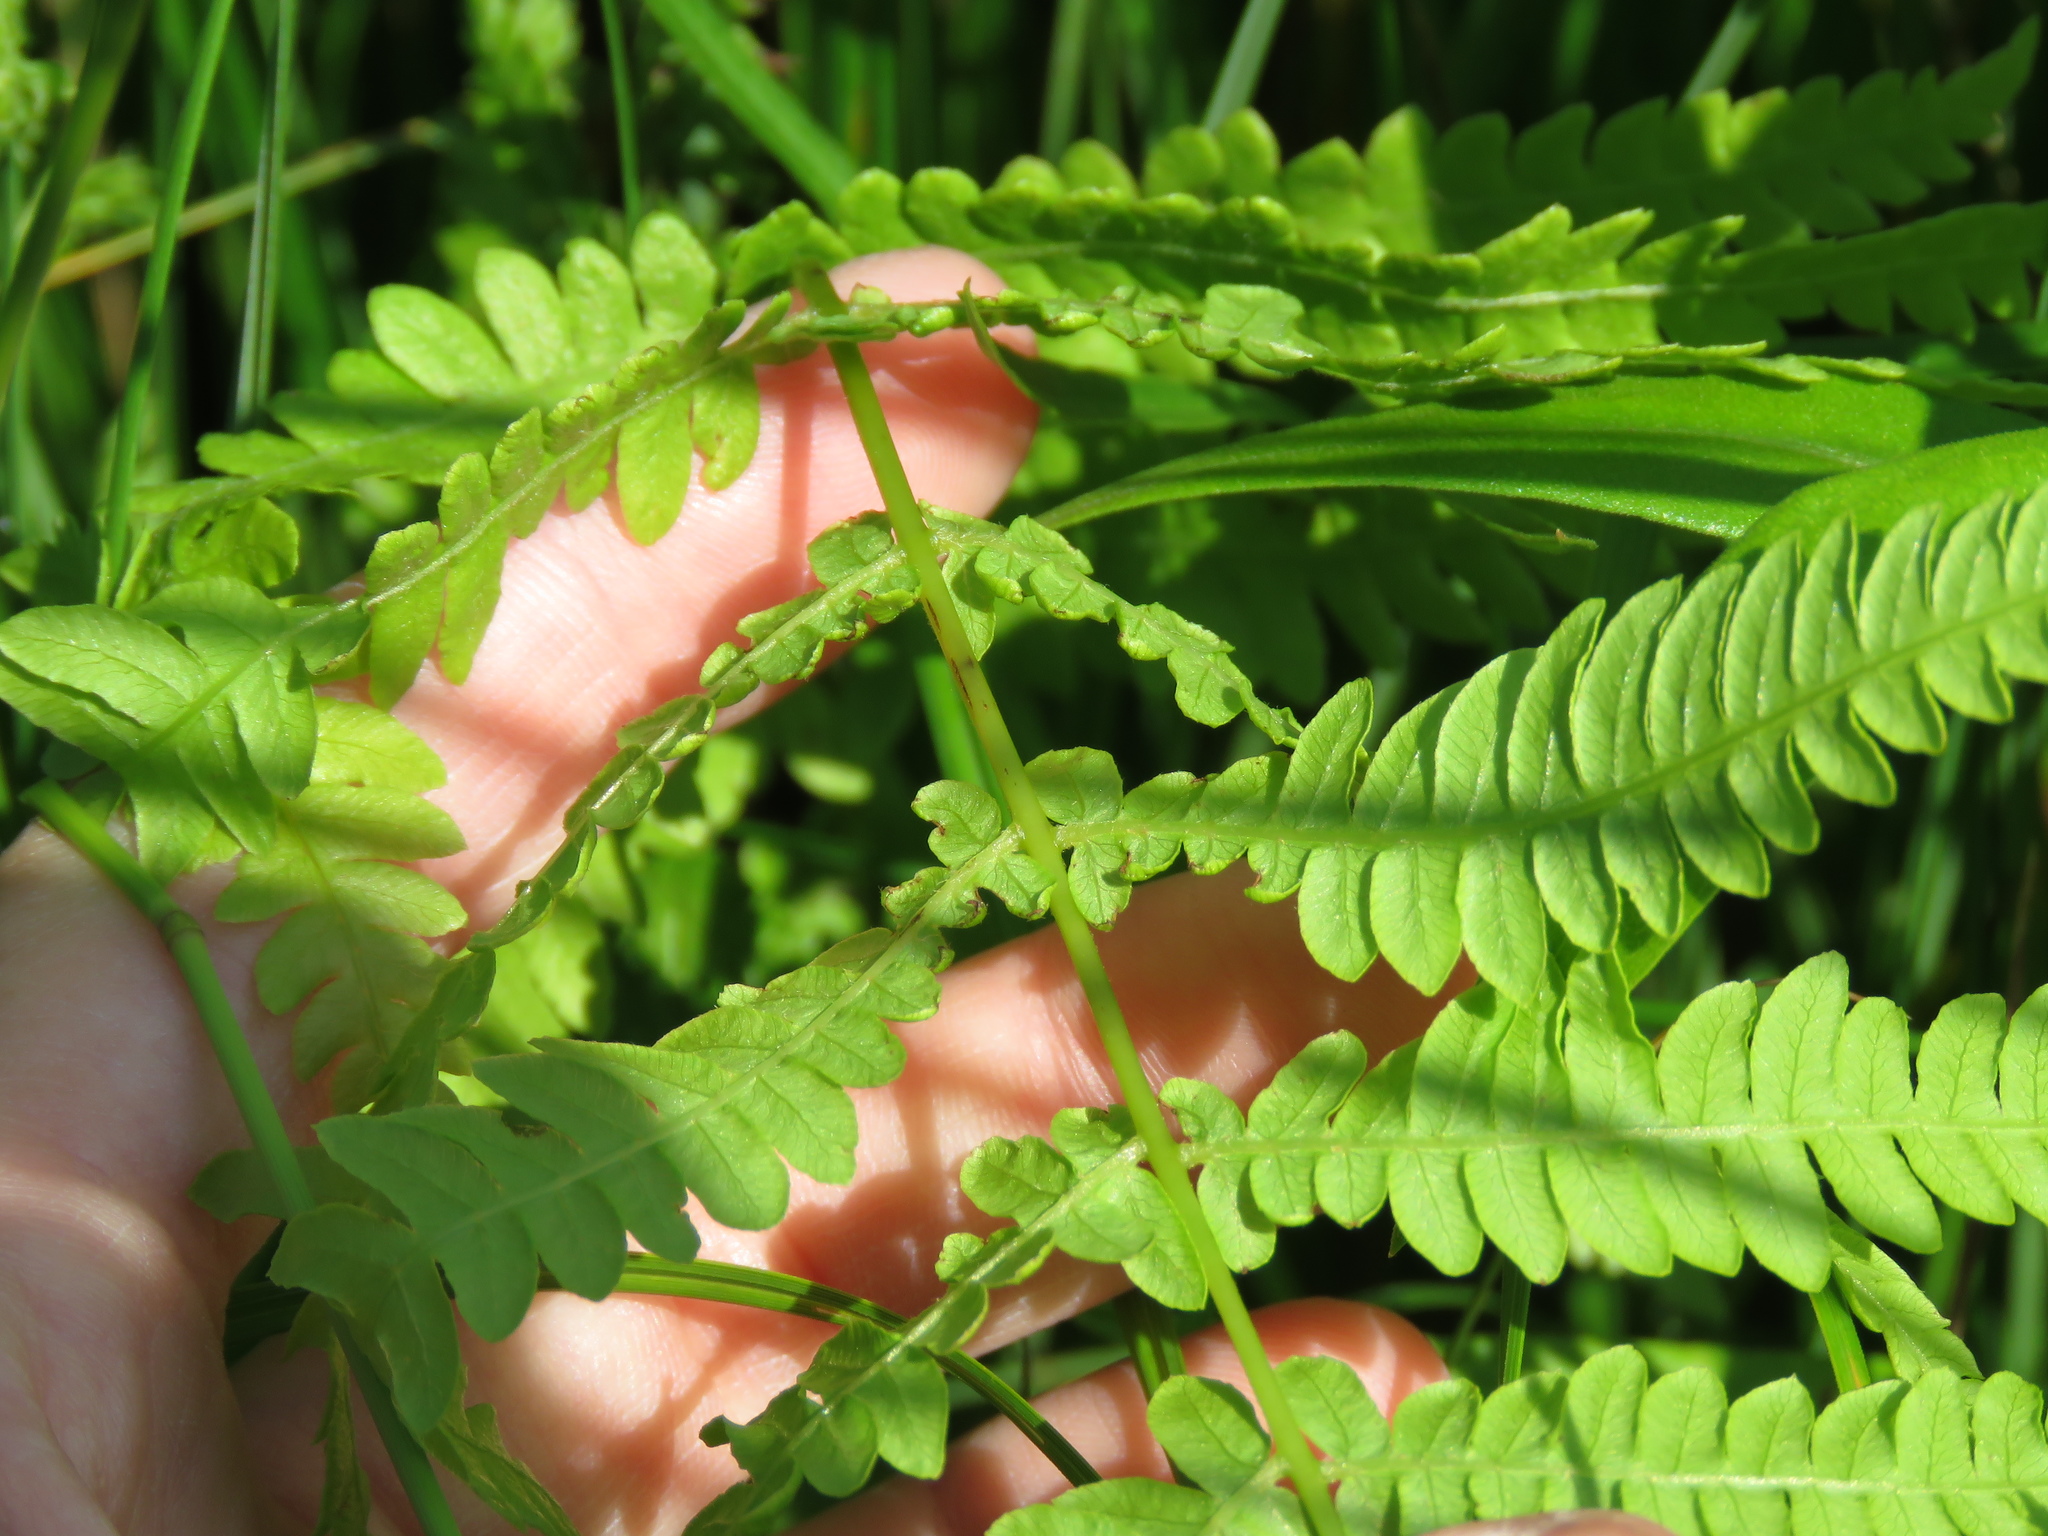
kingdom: Plantae
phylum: Tracheophyta
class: Polypodiopsida
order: Polypodiales
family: Thelypteridaceae
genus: Thelypteris
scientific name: Thelypteris palustris
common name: Marsh fern
